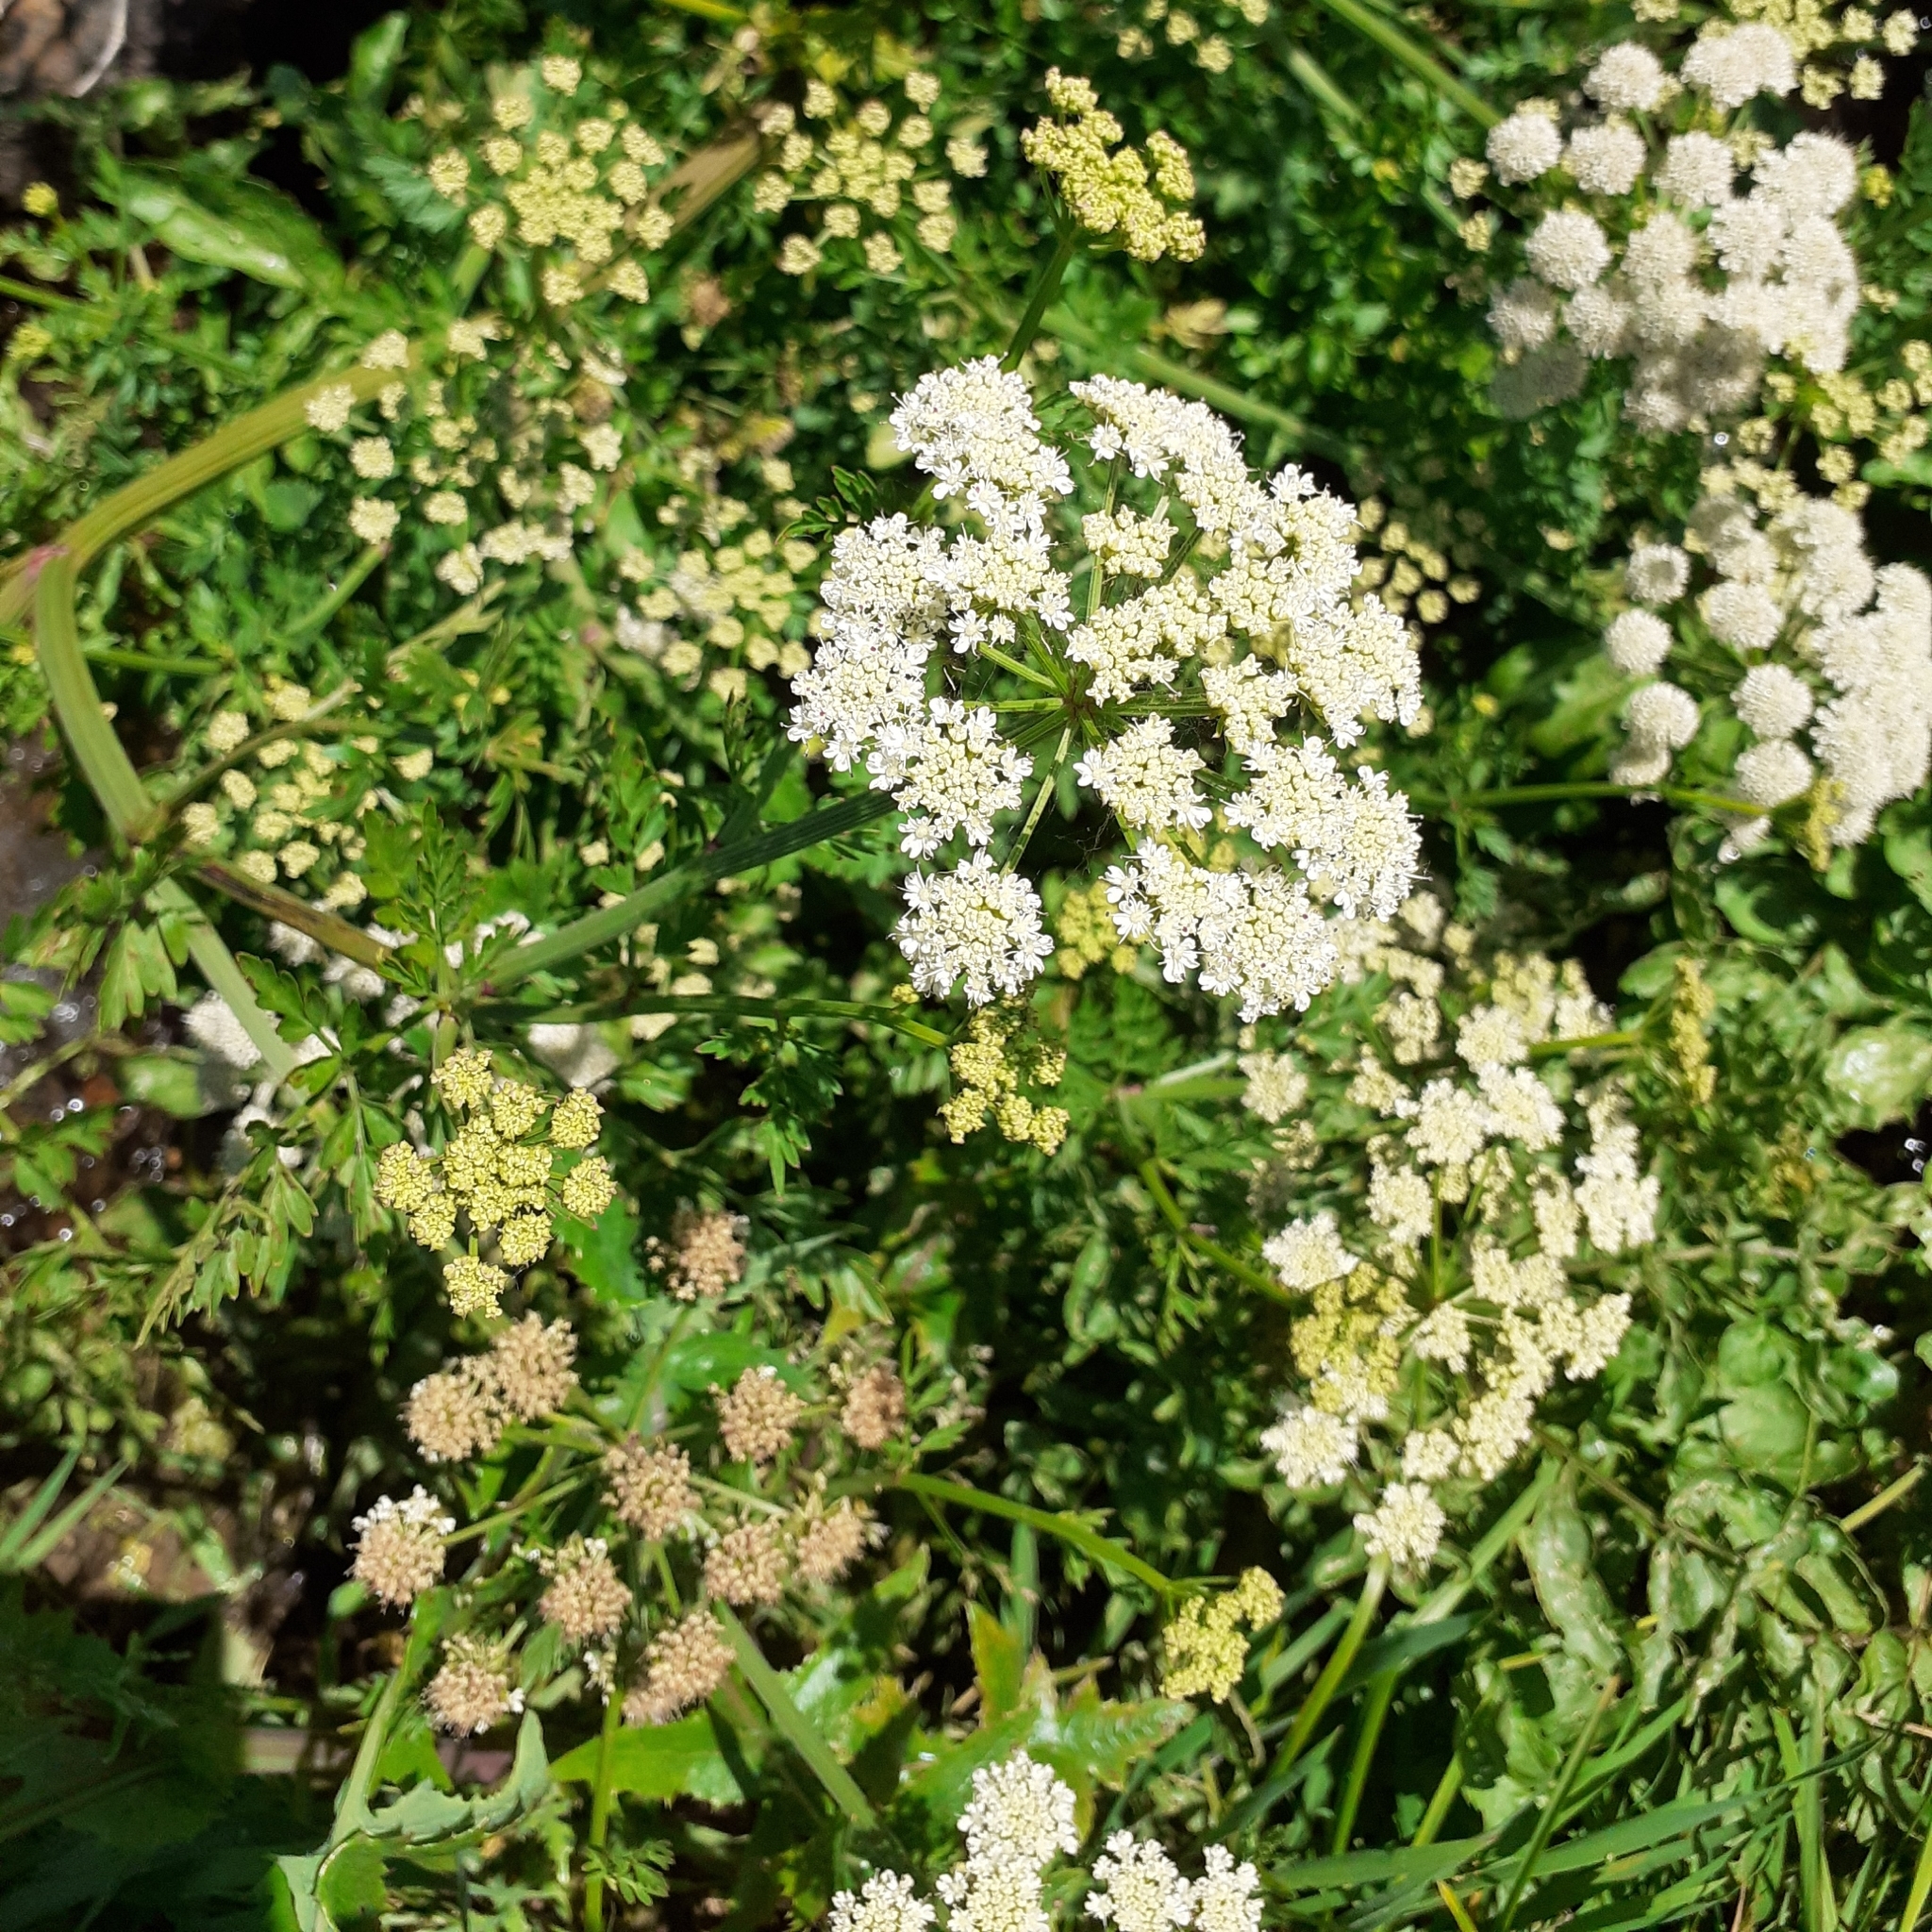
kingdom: Plantae
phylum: Tracheophyta
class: Magnoliopsida
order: Apiales
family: Apiaceae
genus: Oenanthe
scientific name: Oenanthe crocata
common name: Hemlock water-dropwort
